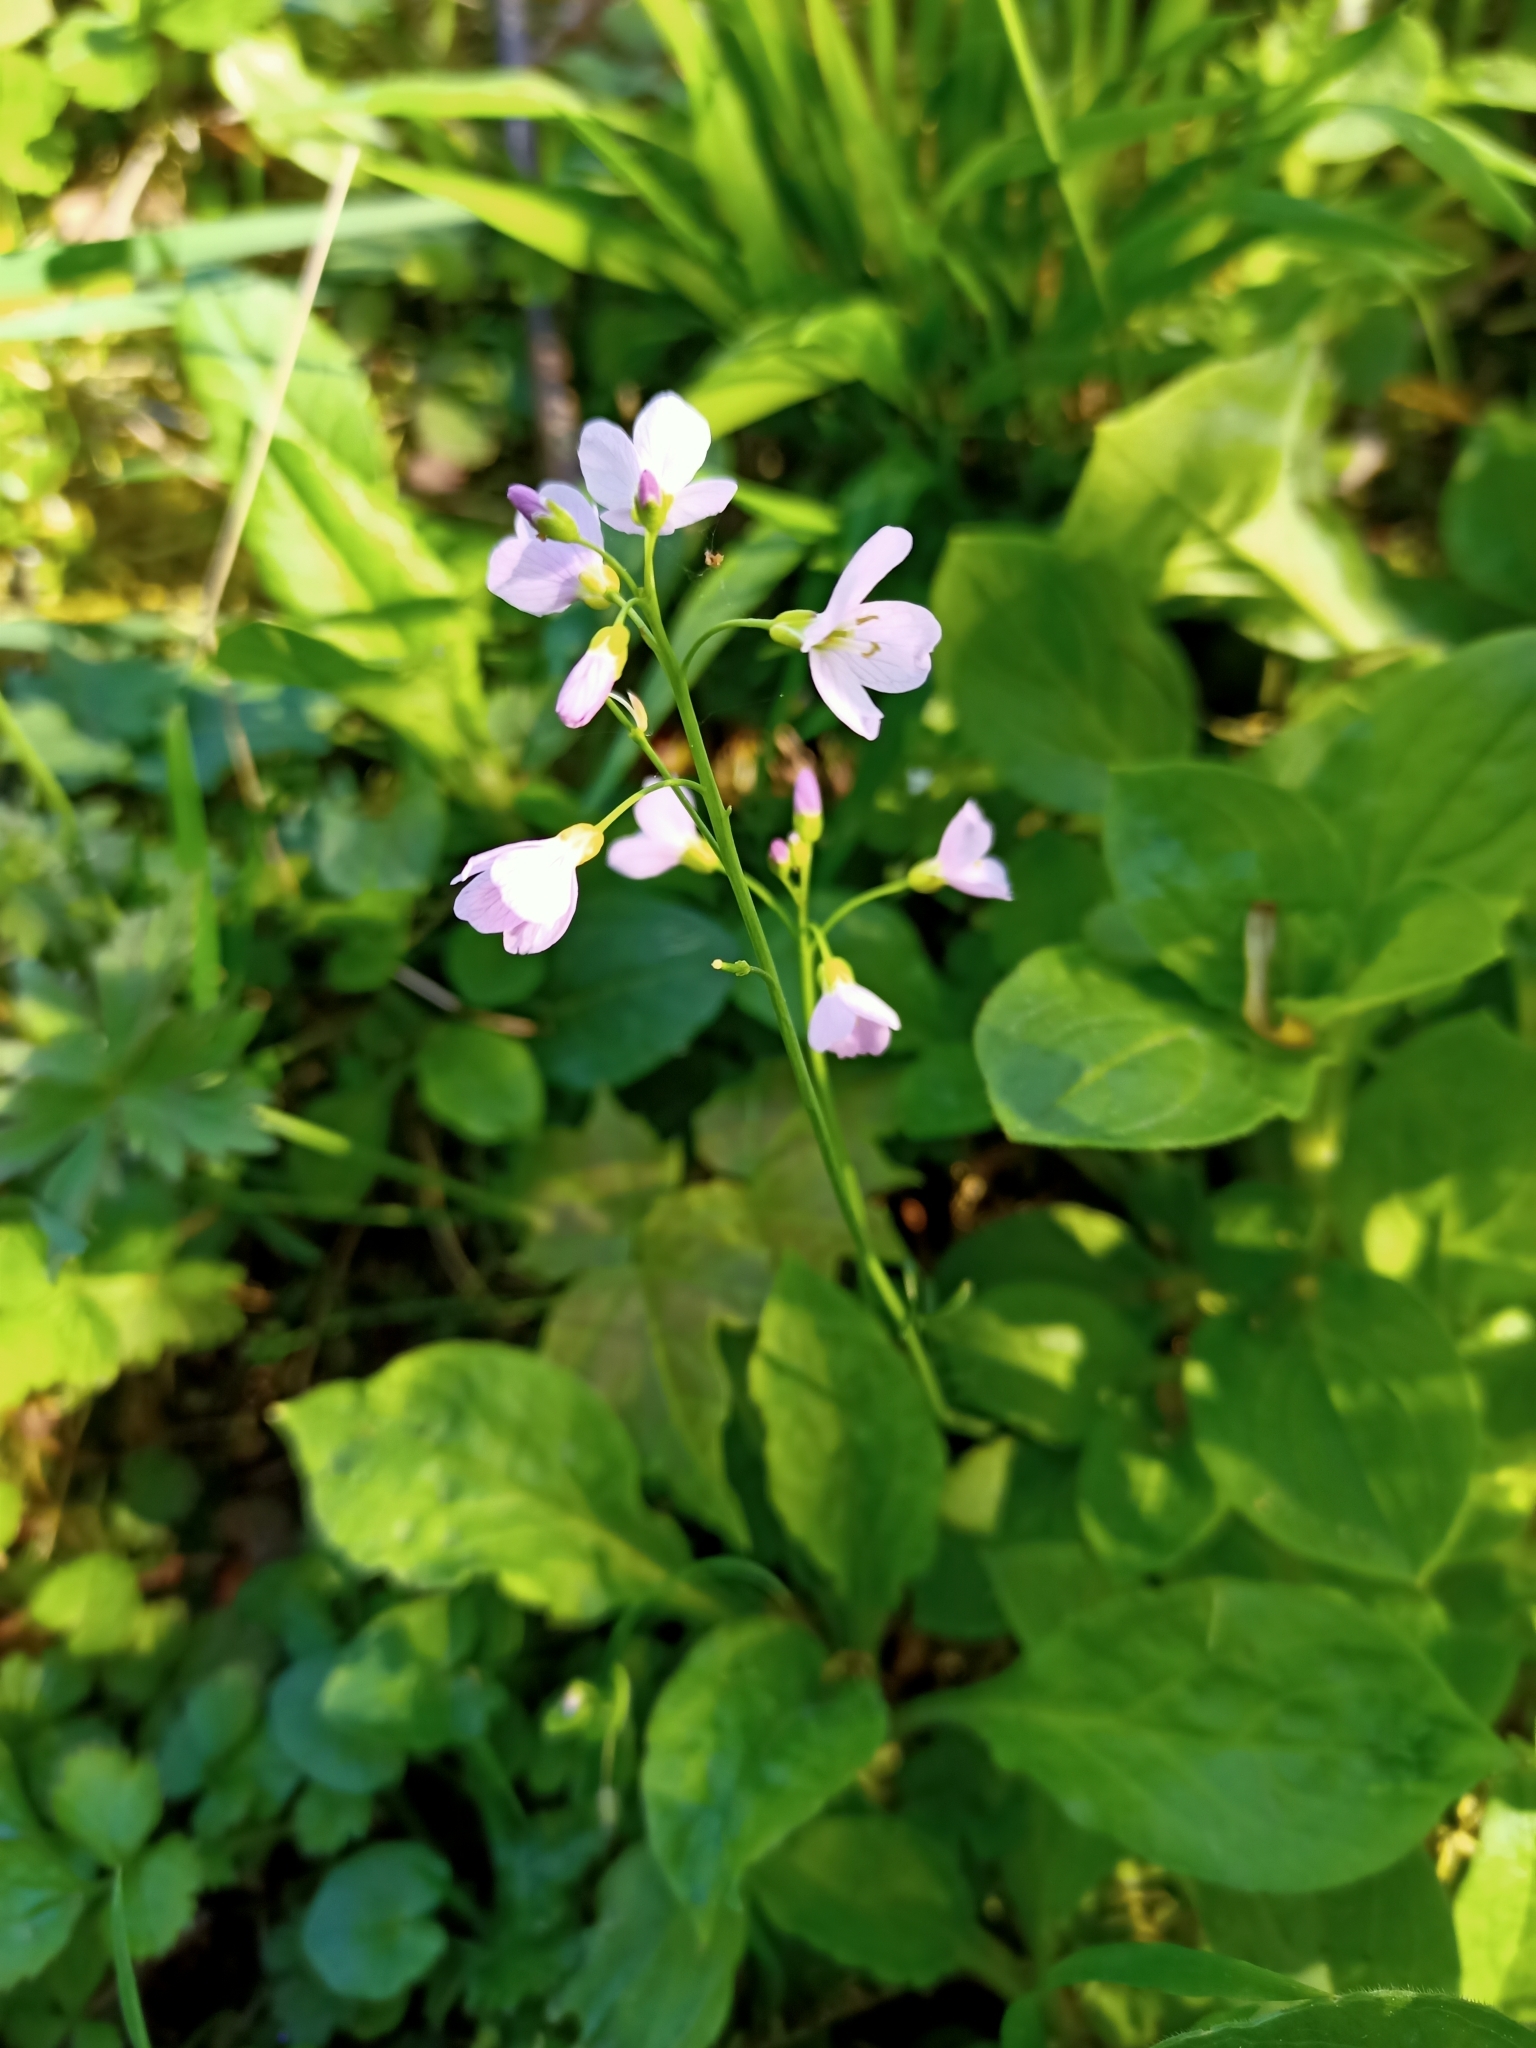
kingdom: Plantae
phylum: Tracheophyta
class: Magnoliopsida
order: Brassicales
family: Brassicaceae
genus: Cardamine
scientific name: Cardamine pratensis
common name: Cuckoo flower
